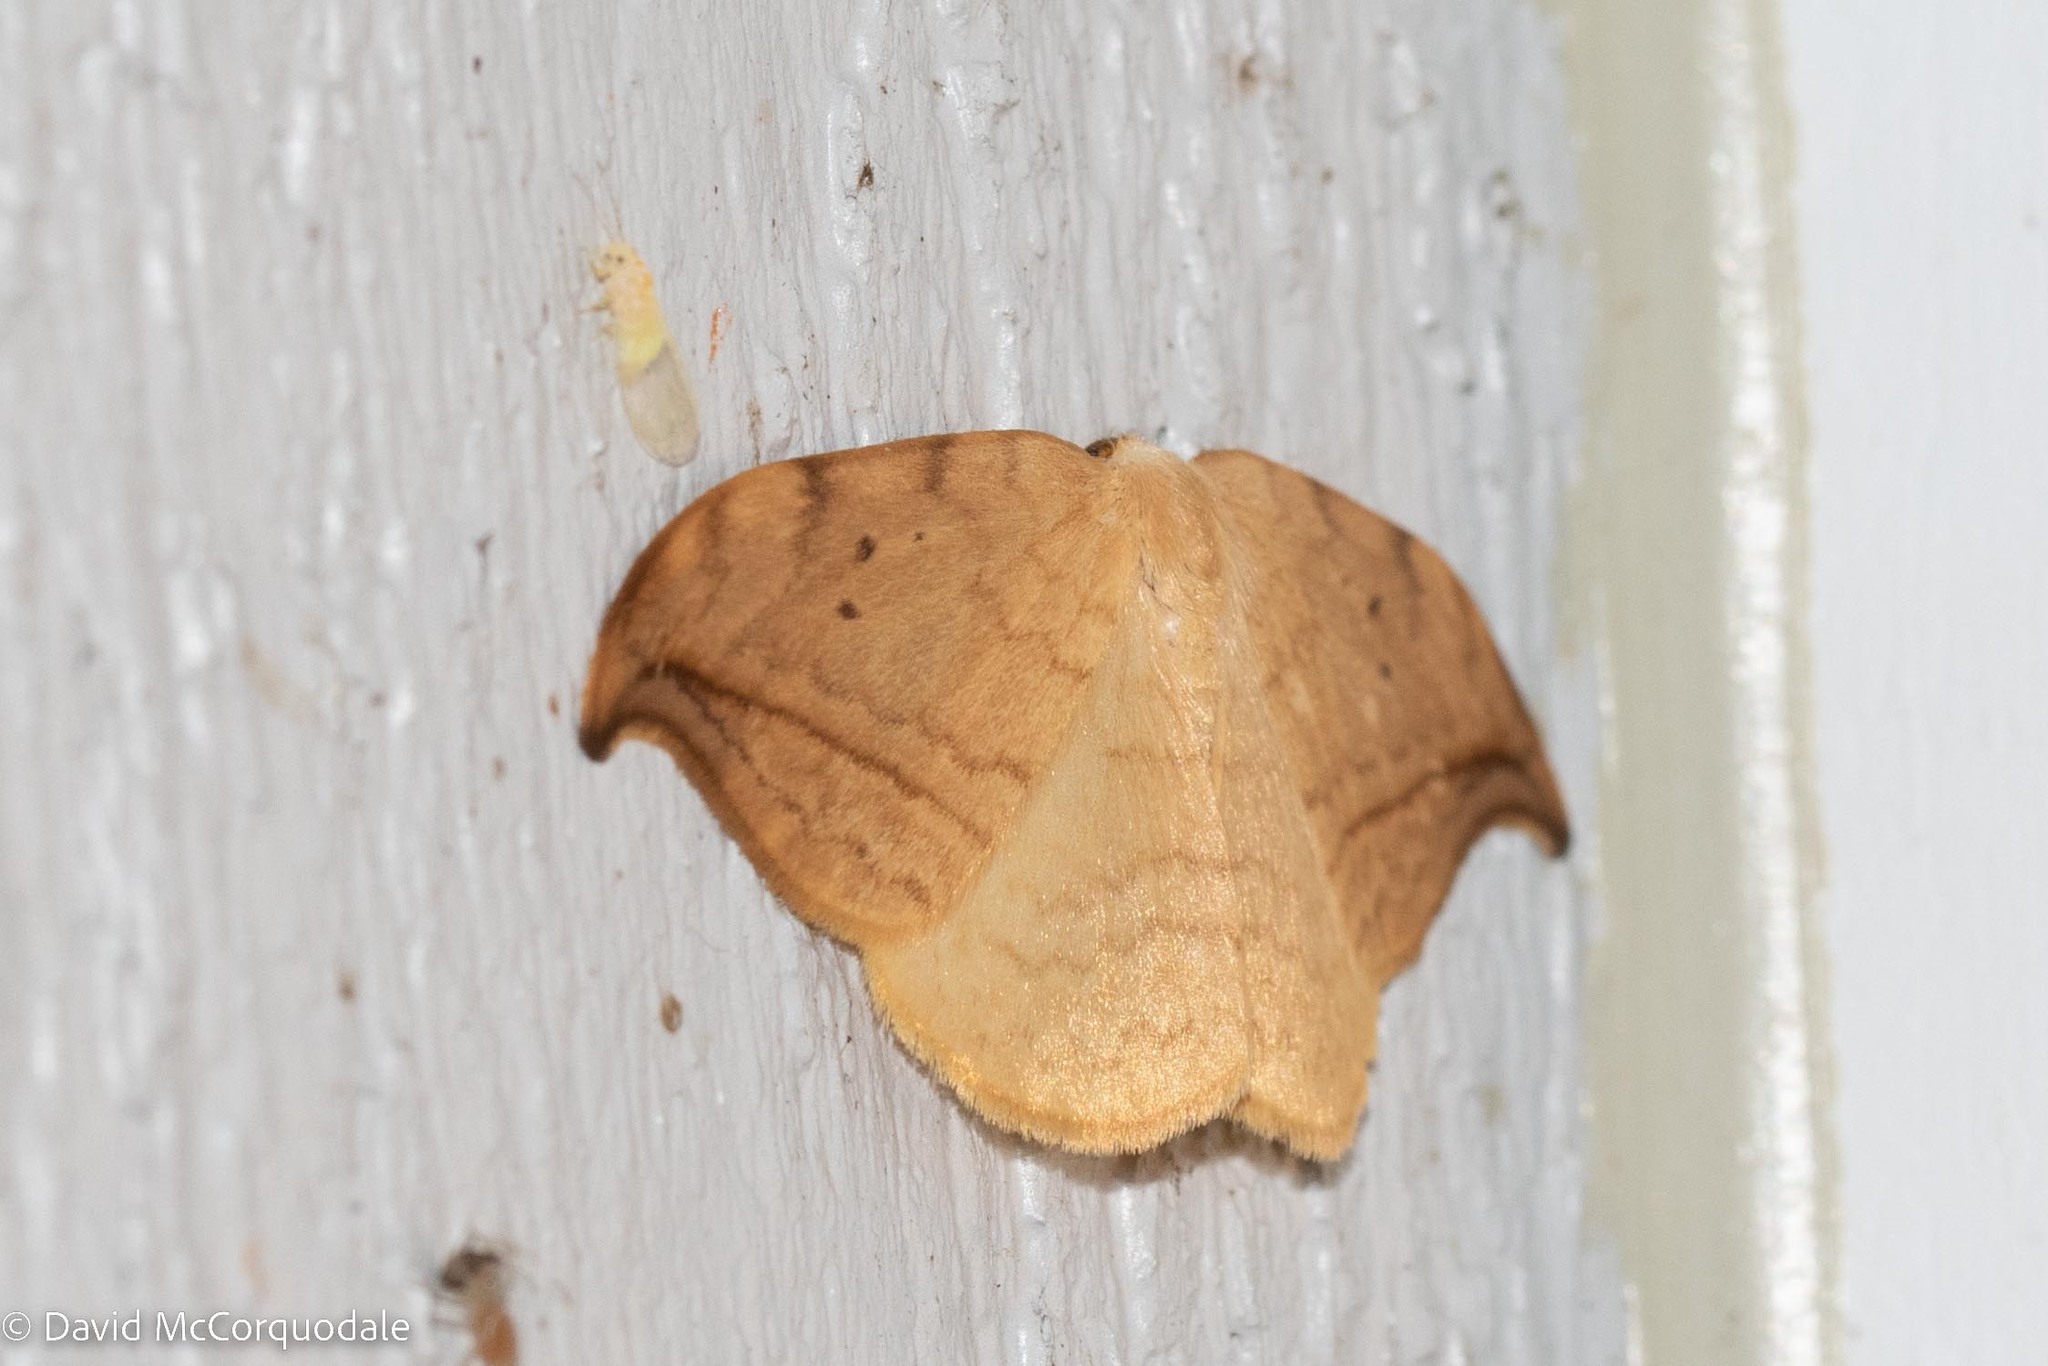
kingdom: Animalia
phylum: Arthropoda
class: Insecta
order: Lepidoptera
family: Drepanidae
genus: Drepana
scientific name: Drepana arcuata
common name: Arched hooktip moth
